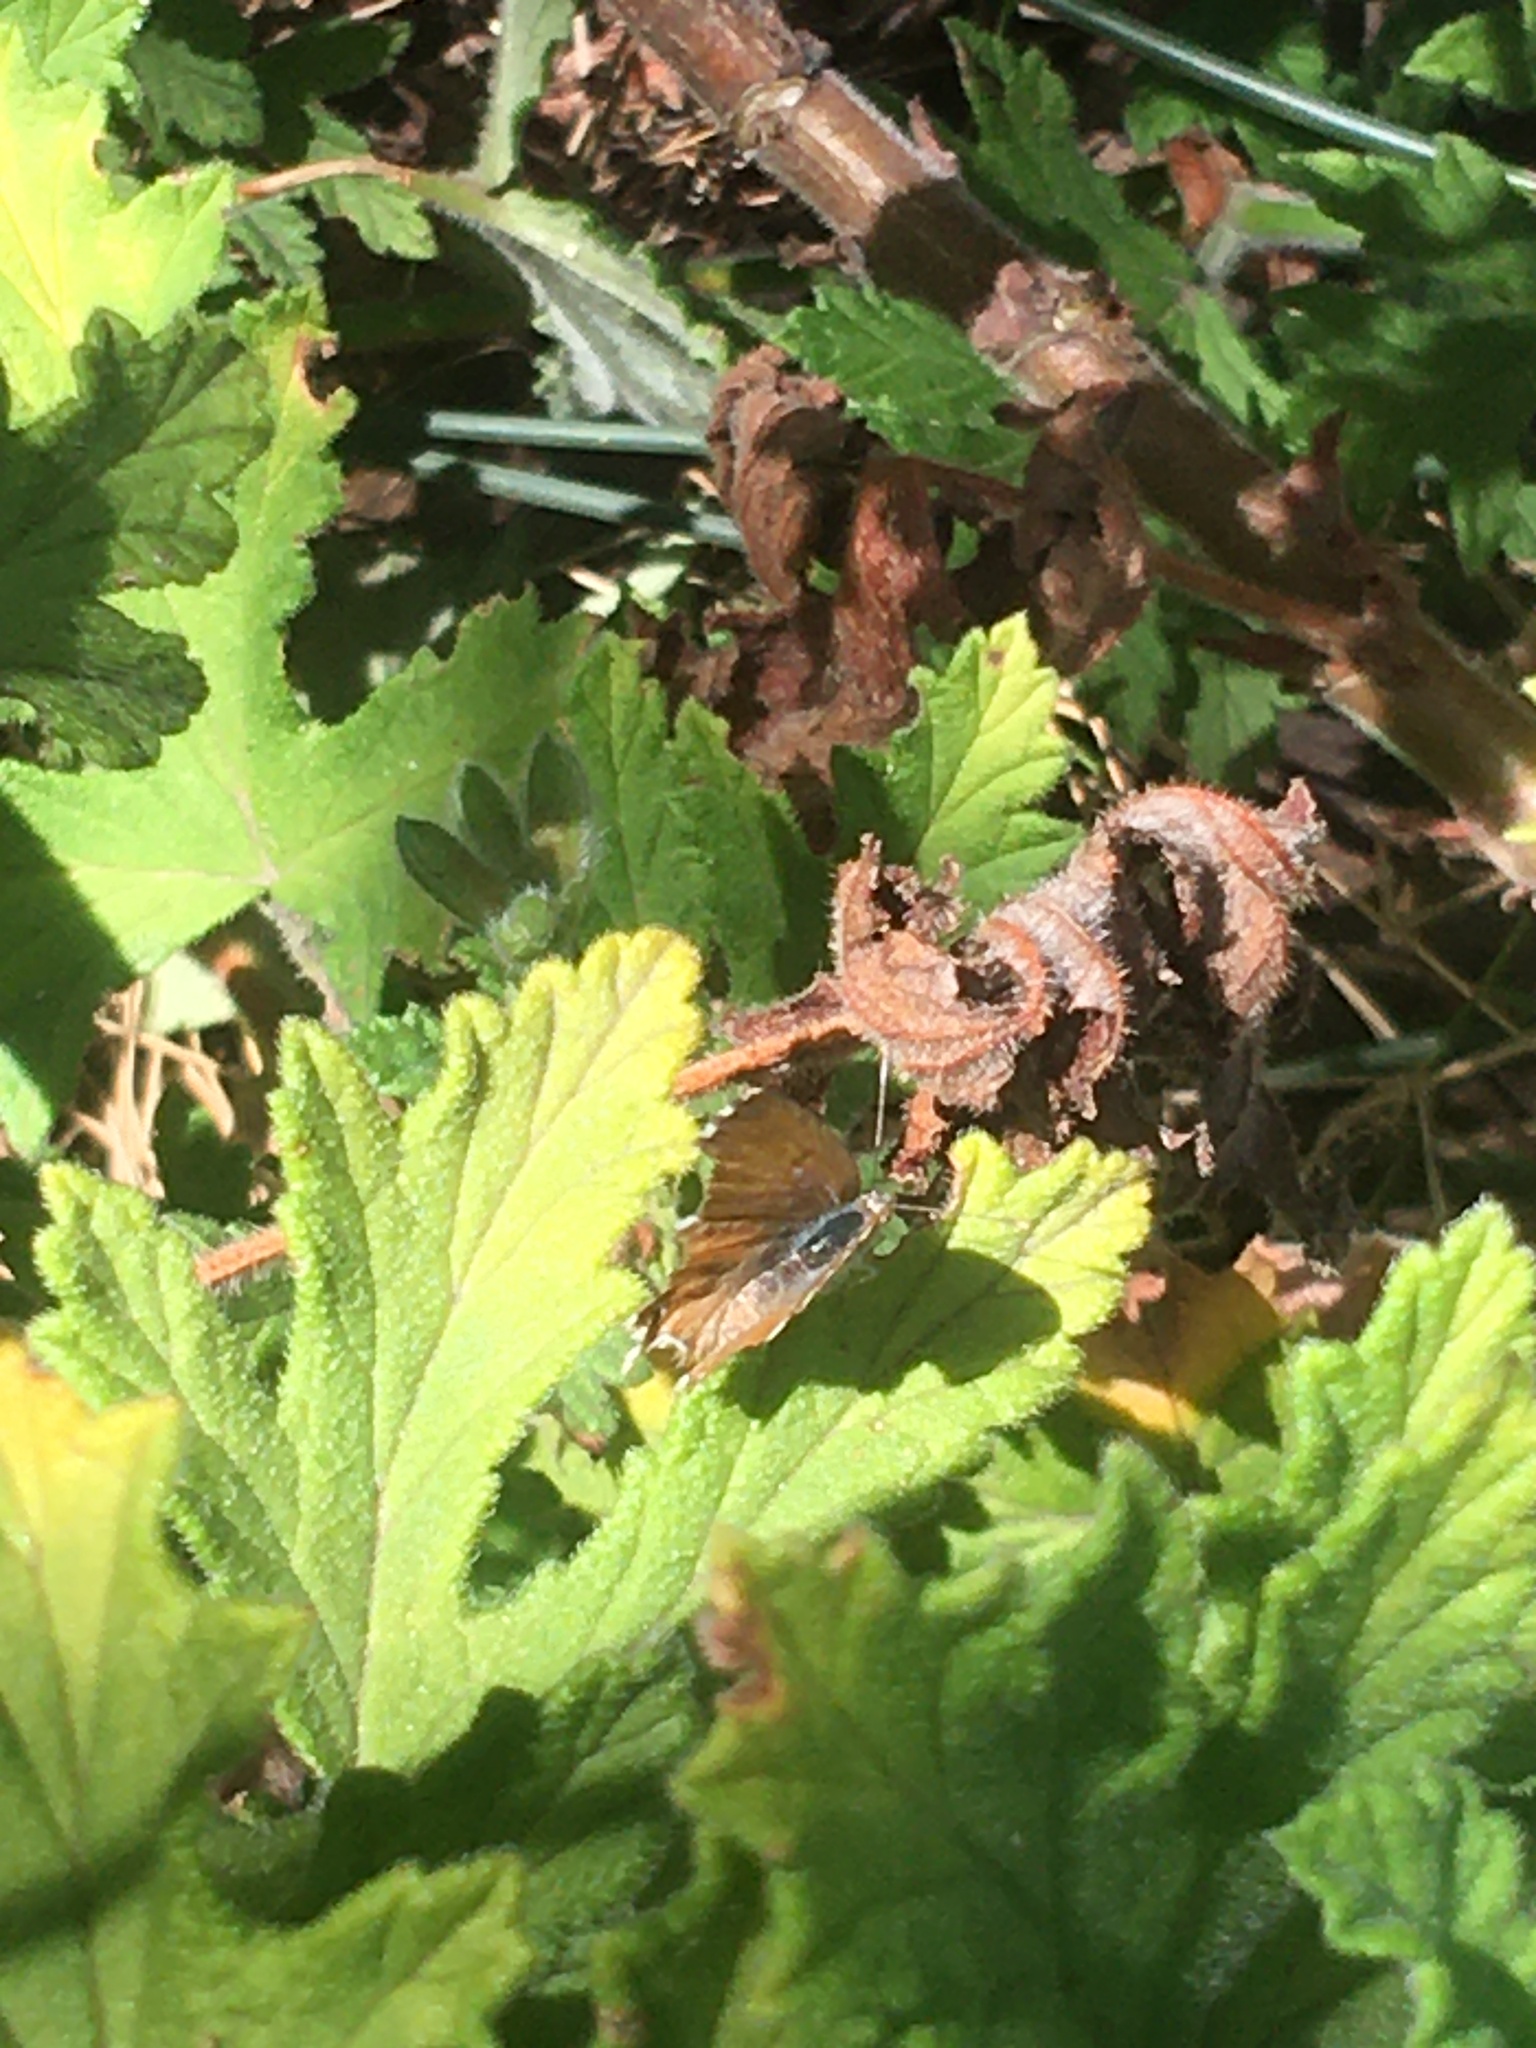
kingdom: Animalia
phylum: Arthropoda
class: Insecta
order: Lepidoptera
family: Lycaenidae
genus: Cacyreus
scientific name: Cacyreus fracta
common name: Water bronze
